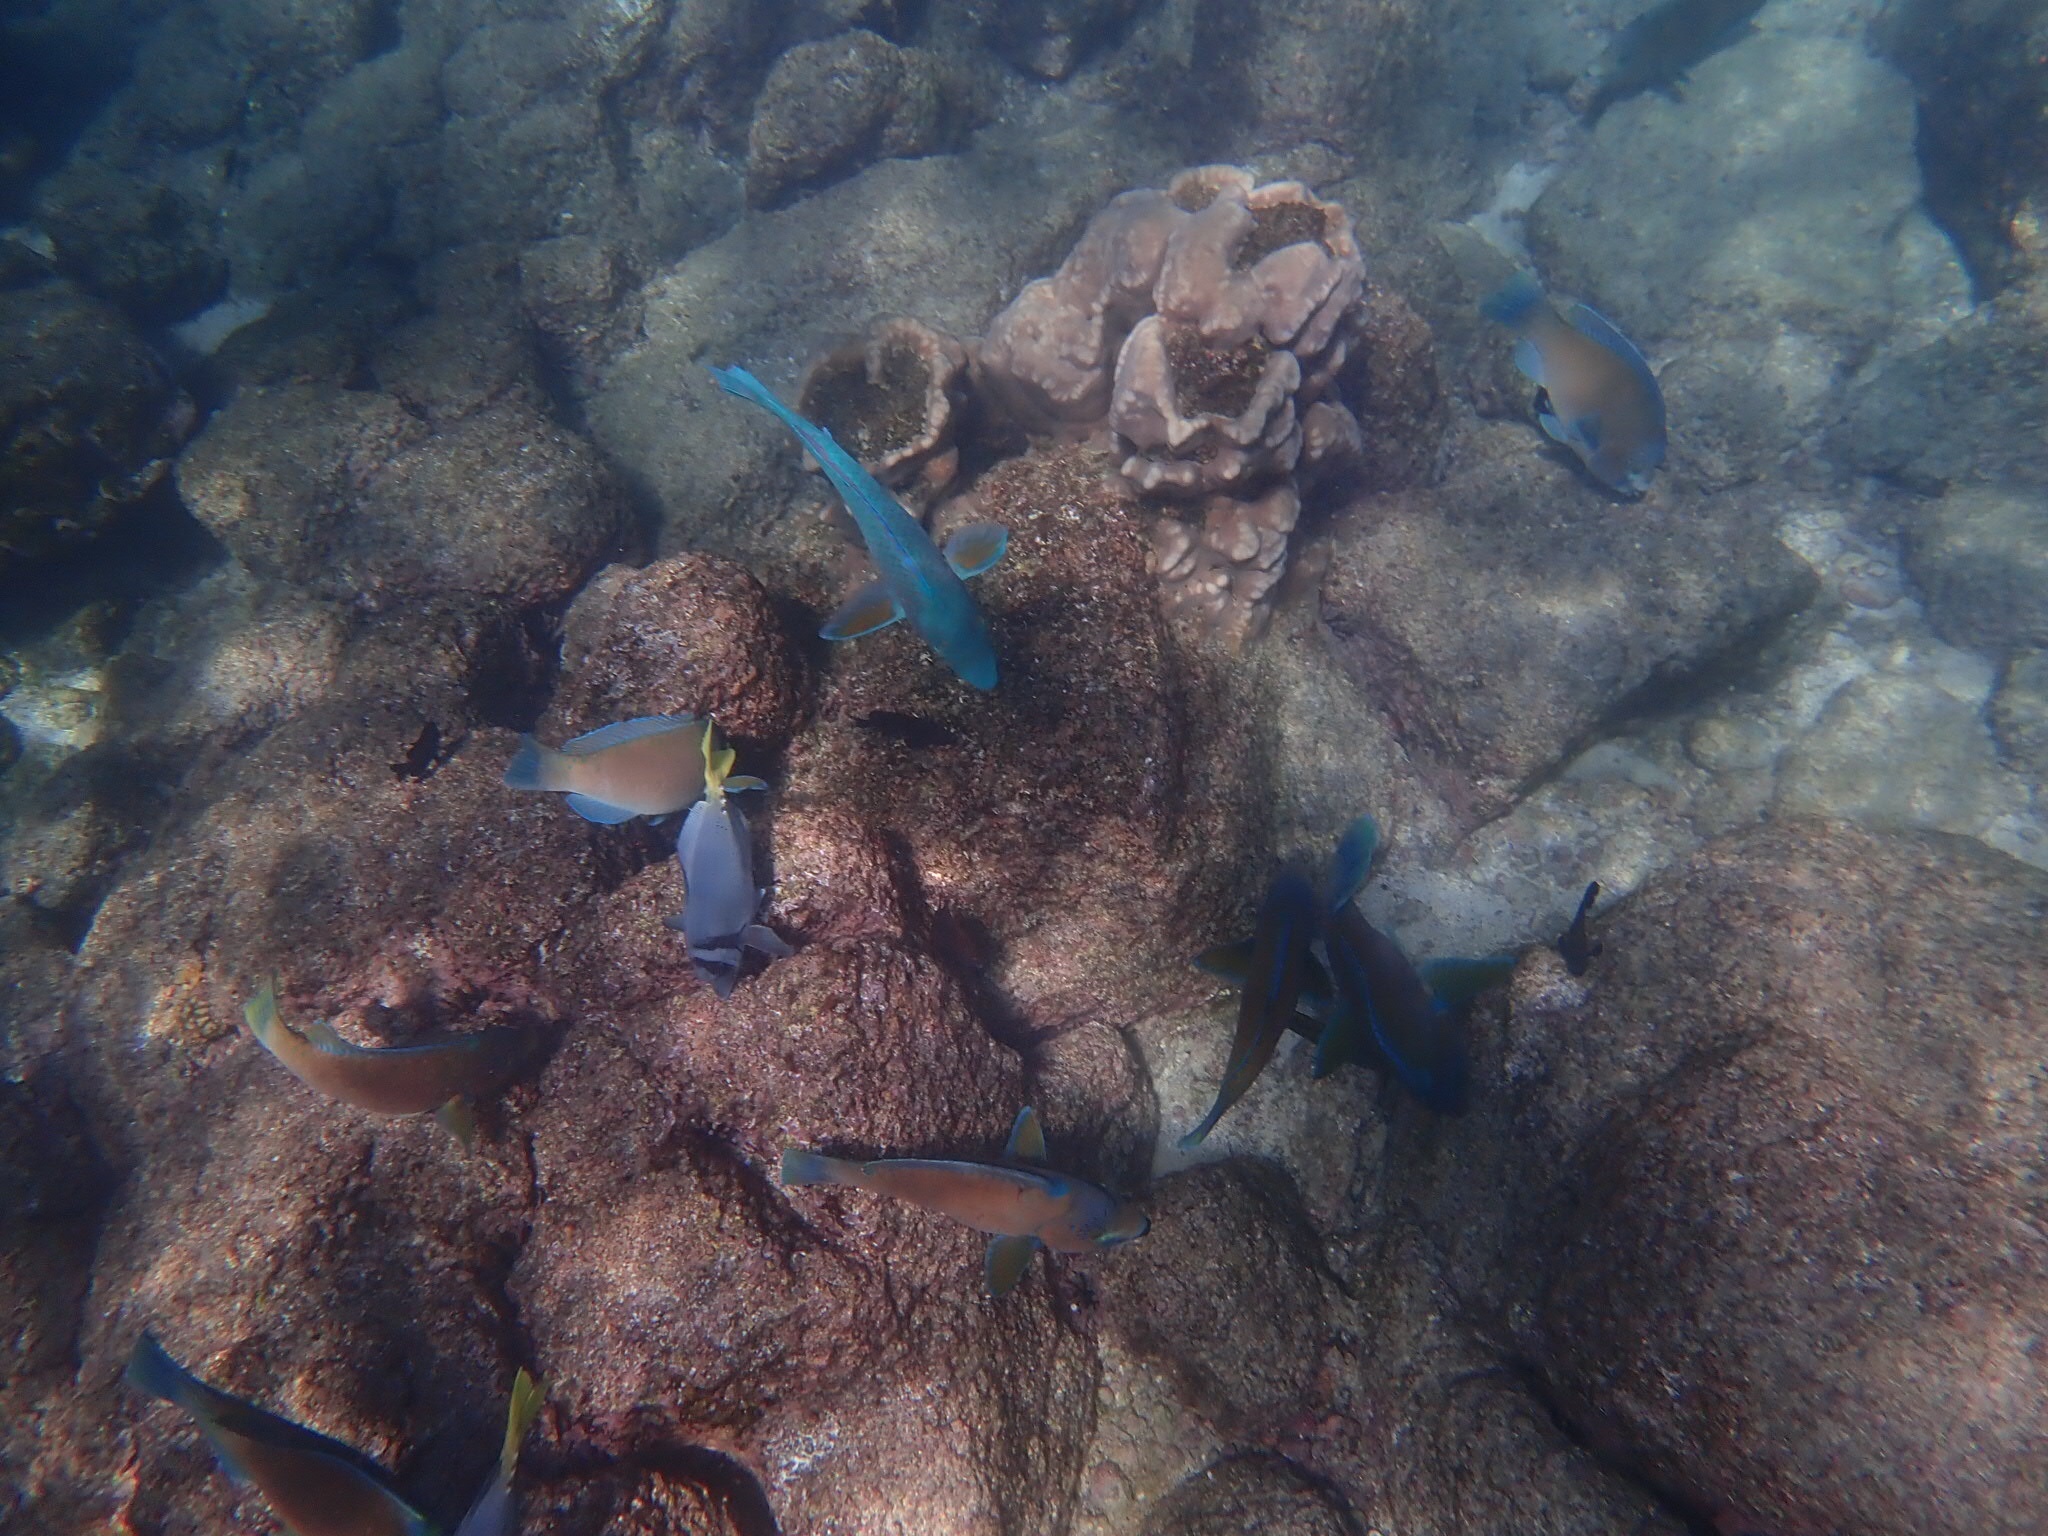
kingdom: Animalia
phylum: Chordata
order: Perciformes
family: Scaridae
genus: Scarus
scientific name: Scarus ghobban
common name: Blue-barred parrotfish
